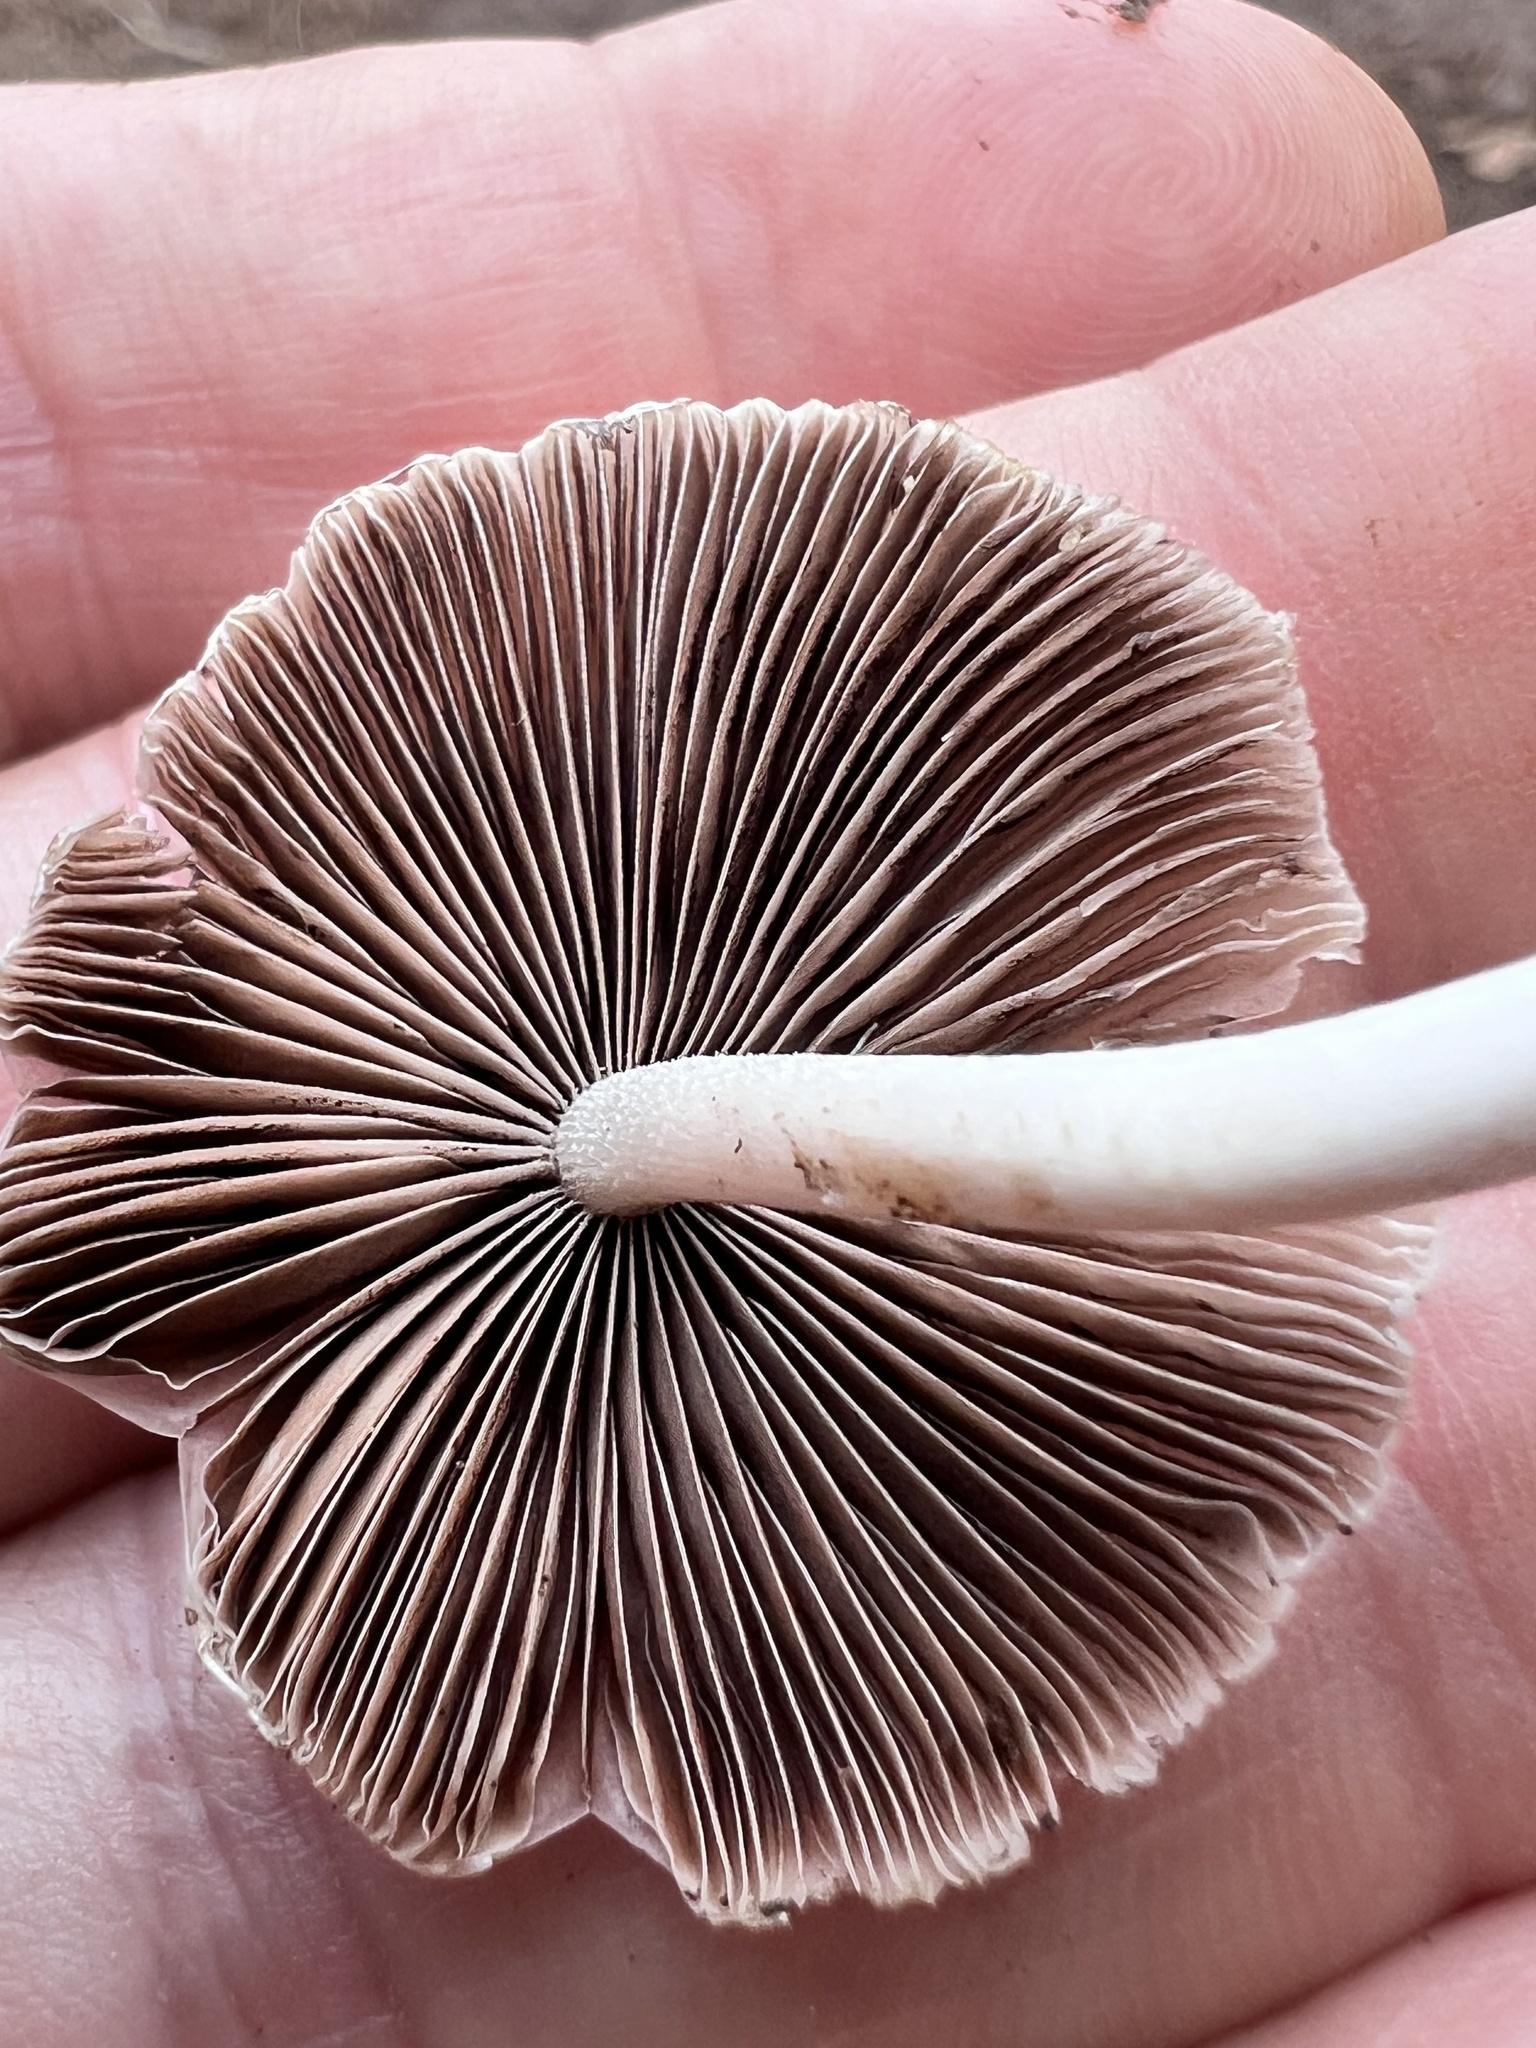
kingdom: Fungi
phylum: Basidiomycota
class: Agaricomycetes
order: Agaricales
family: Psathyrellaceae
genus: Candolleomyces
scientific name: Candolleomyces candolleanus
